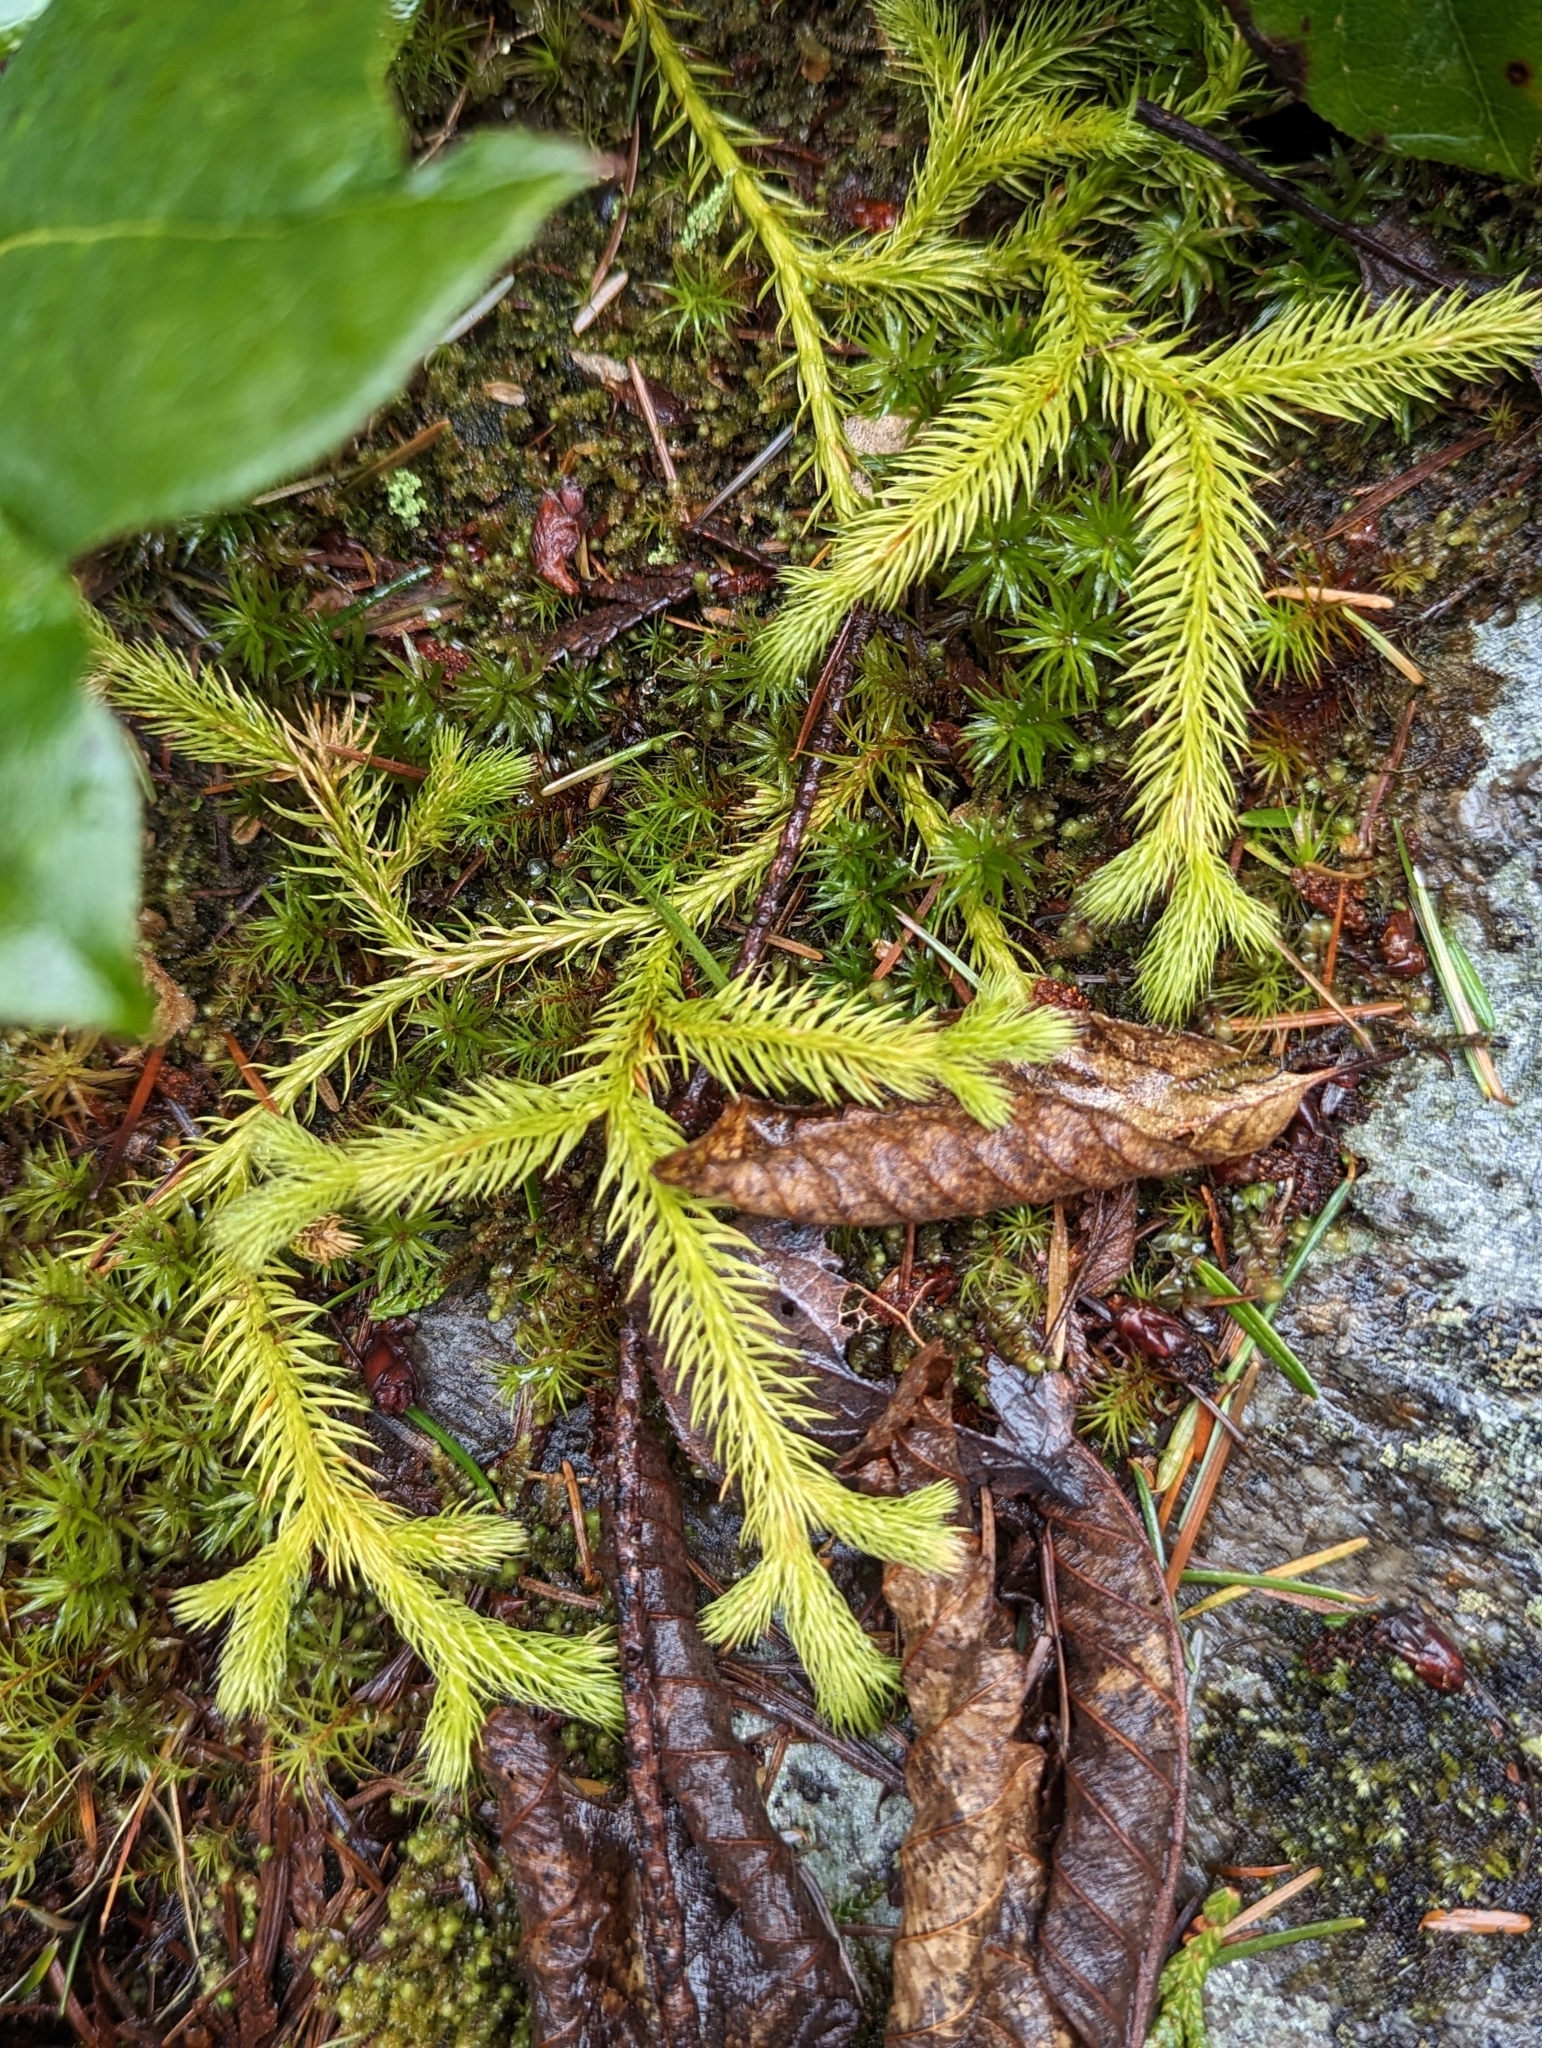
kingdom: Plantae
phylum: Tracheophyta
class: Lycopodiopsida
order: Lycopodiales
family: Lycopodiaceae
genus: Lycopodium
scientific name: Lycopodium clavatum
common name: Stag's-horn clubmoss
